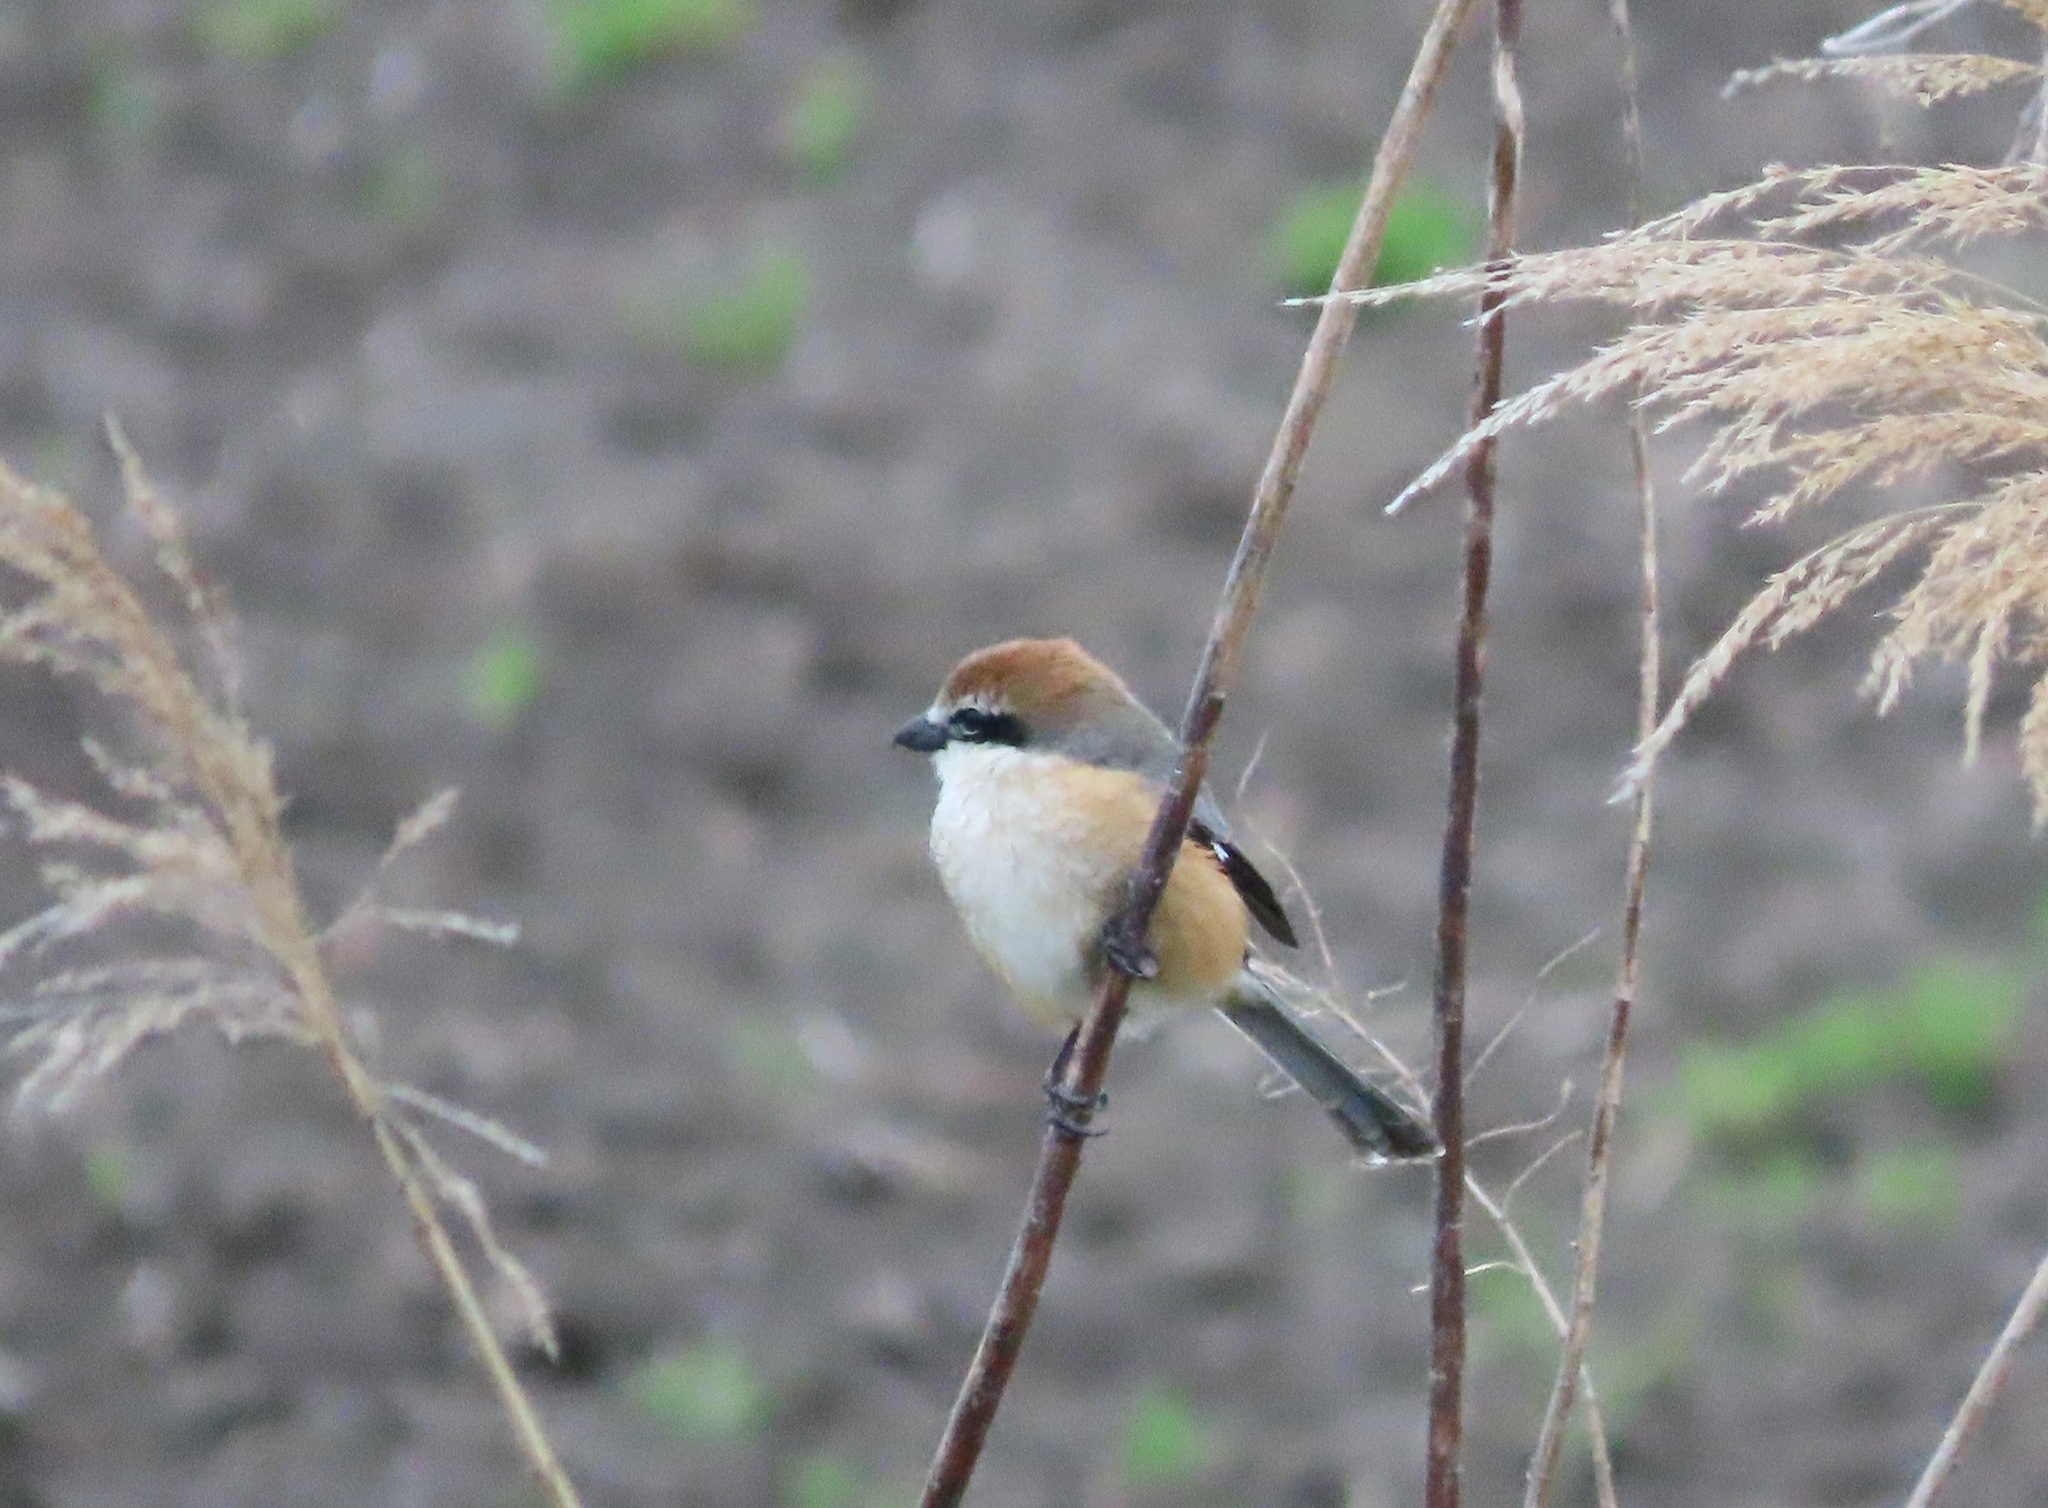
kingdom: Animalia
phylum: Chordata
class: Aves
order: Passeriformes
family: Laniidae
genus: Lanius
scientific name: Lanius bucephalus
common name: Bull-headed shrike
